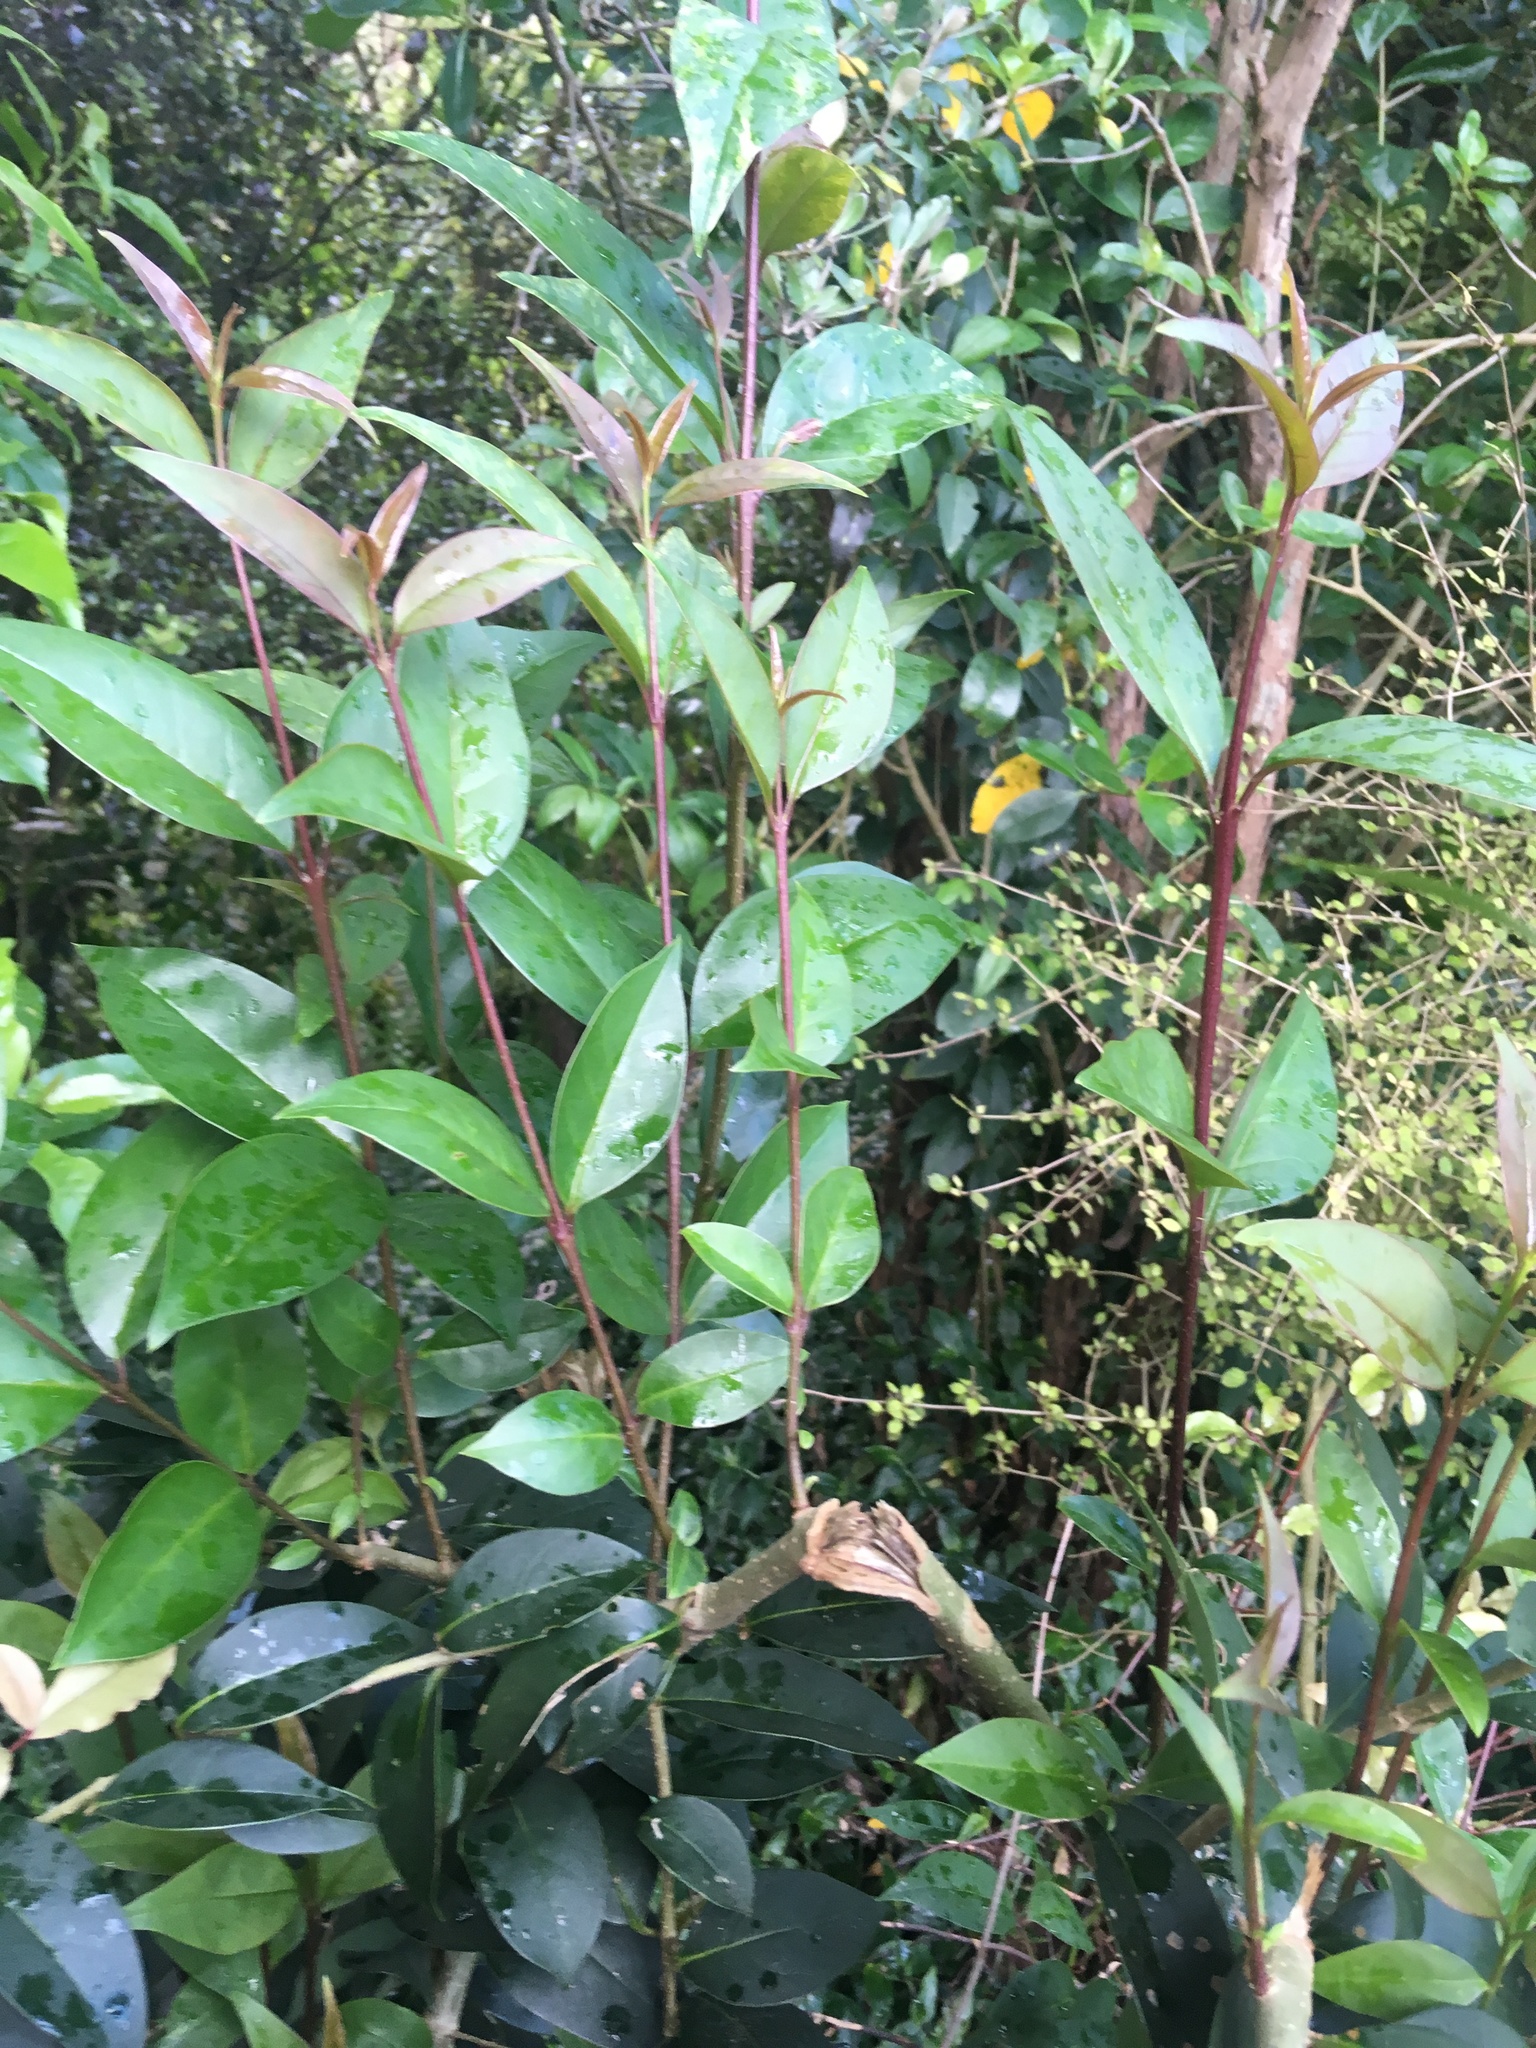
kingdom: Plantae
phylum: Tracheophyta
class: Magnoliopsida
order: Lamiales
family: Oleaceae
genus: Ligustrum
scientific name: Ligustrum lucidum
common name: Glossy privet
